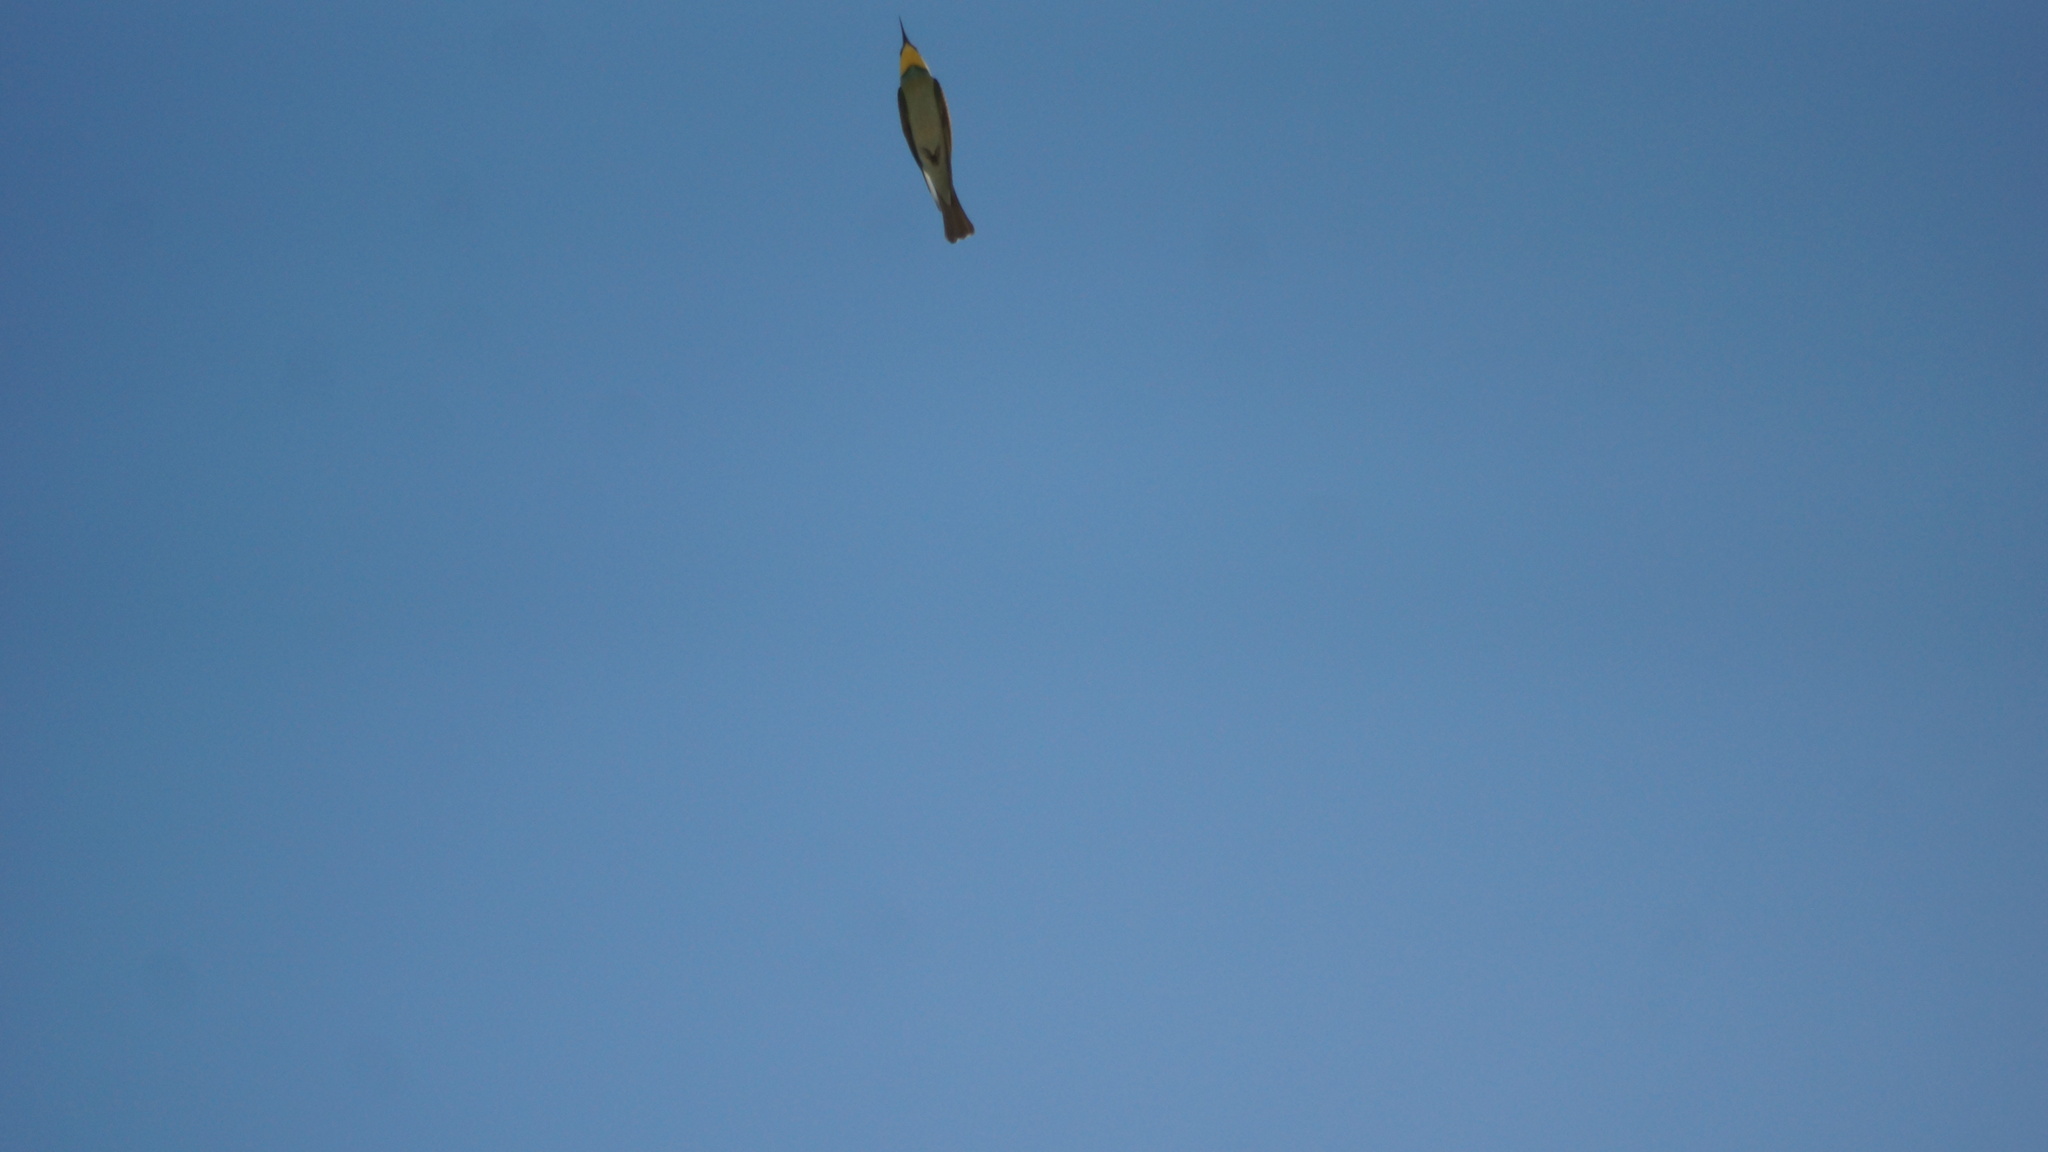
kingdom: Animalia
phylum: Chordata
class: Aves
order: Coraciiformes
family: Meropidae
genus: Merops
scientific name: Merops apiaster
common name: European bee-eater
